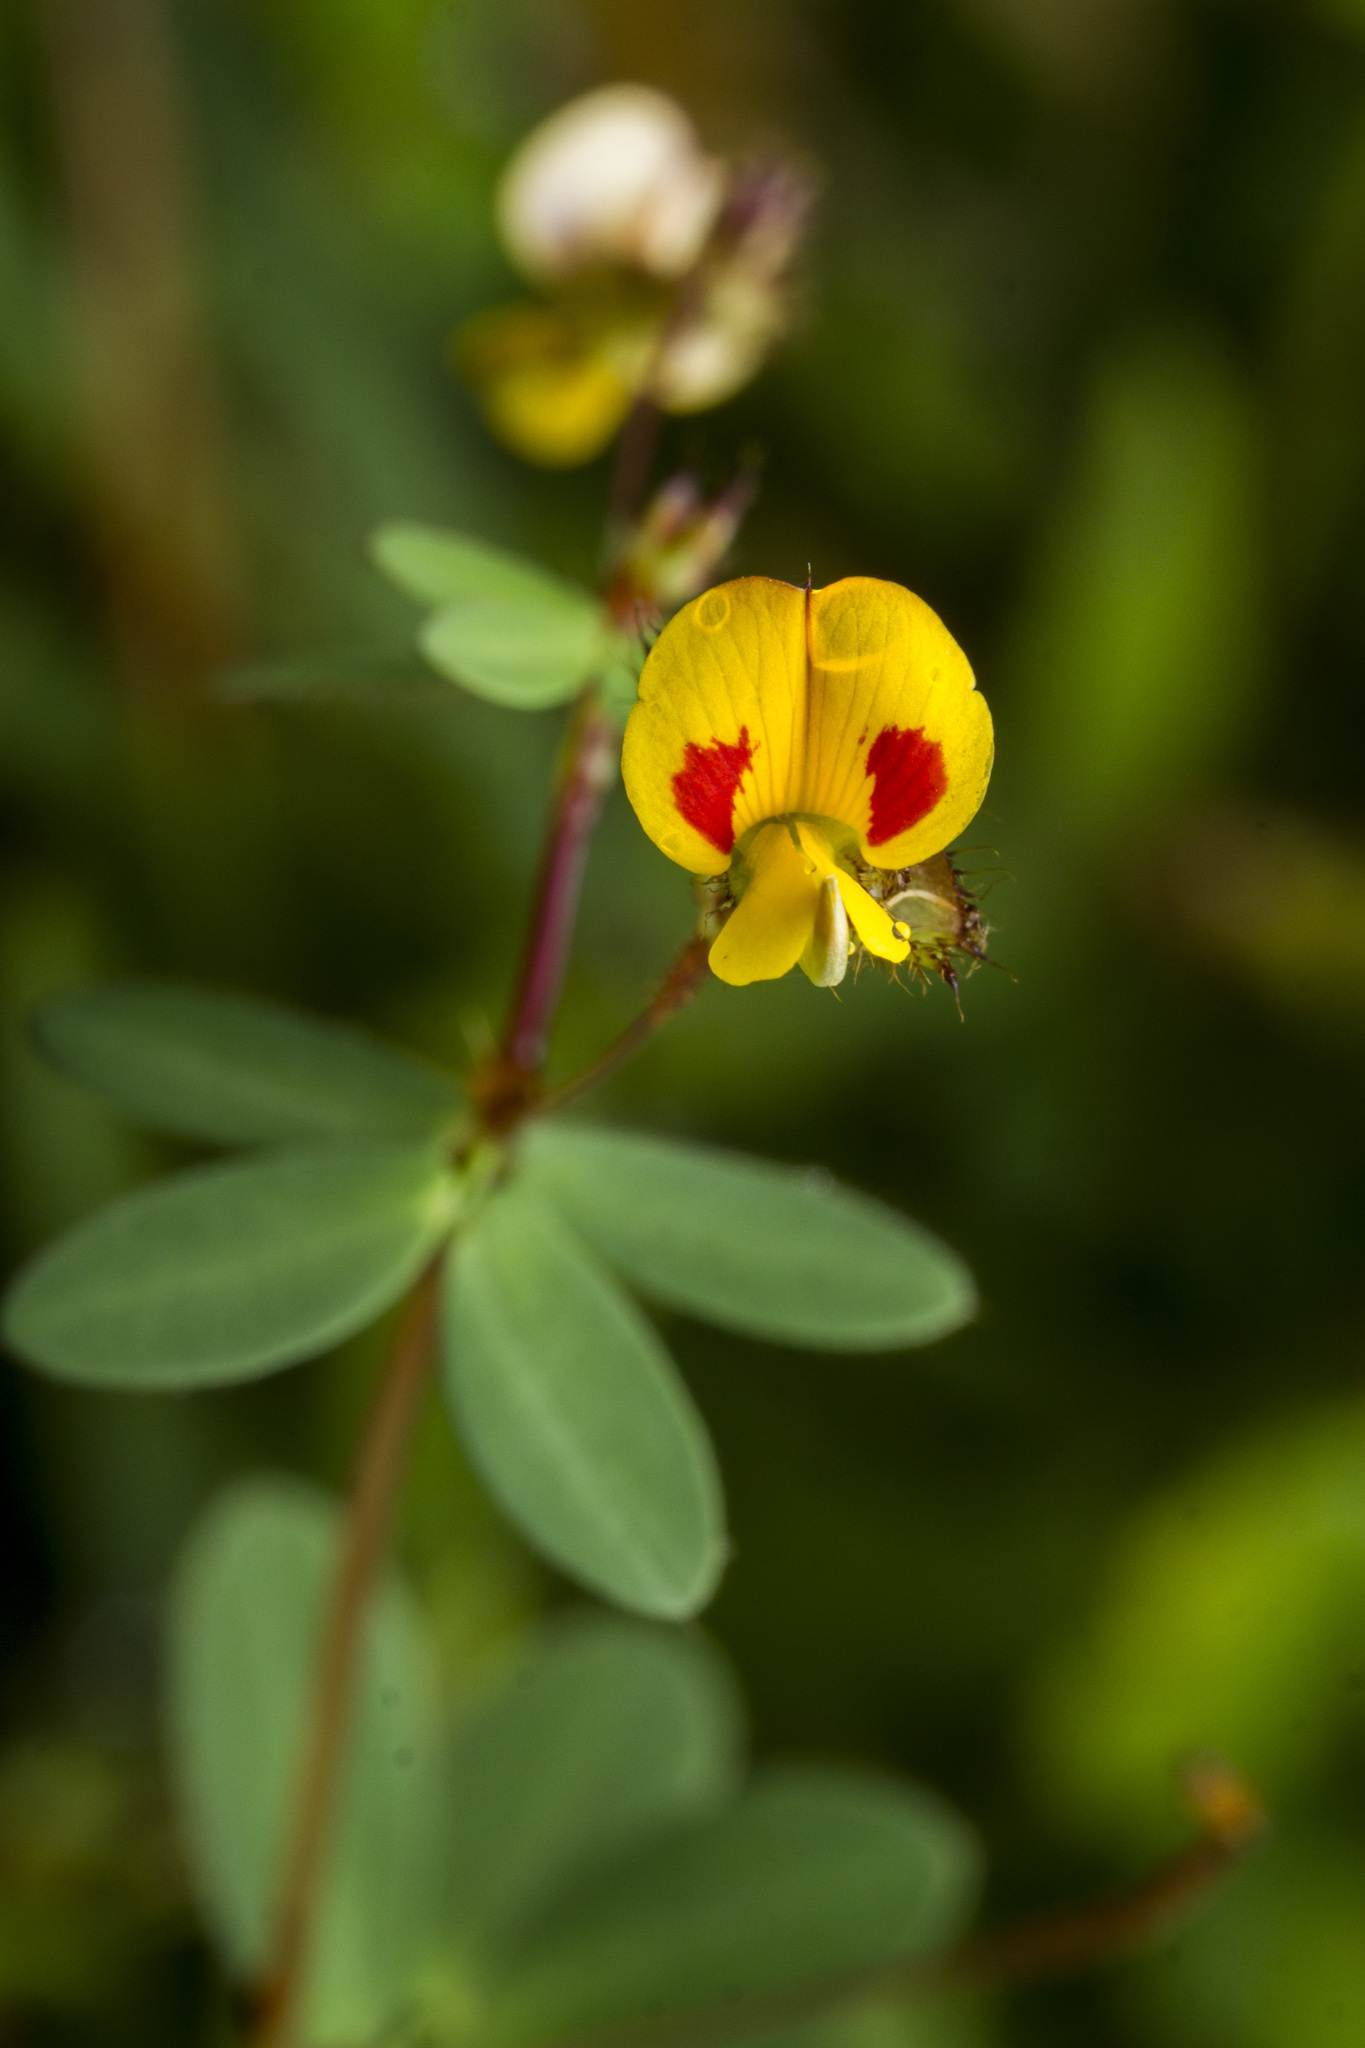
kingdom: Plantae
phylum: Tracheophyta
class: Magnoliopsida
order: Fabales
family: Fabaceae
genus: Smithia
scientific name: Smithia bigemina
